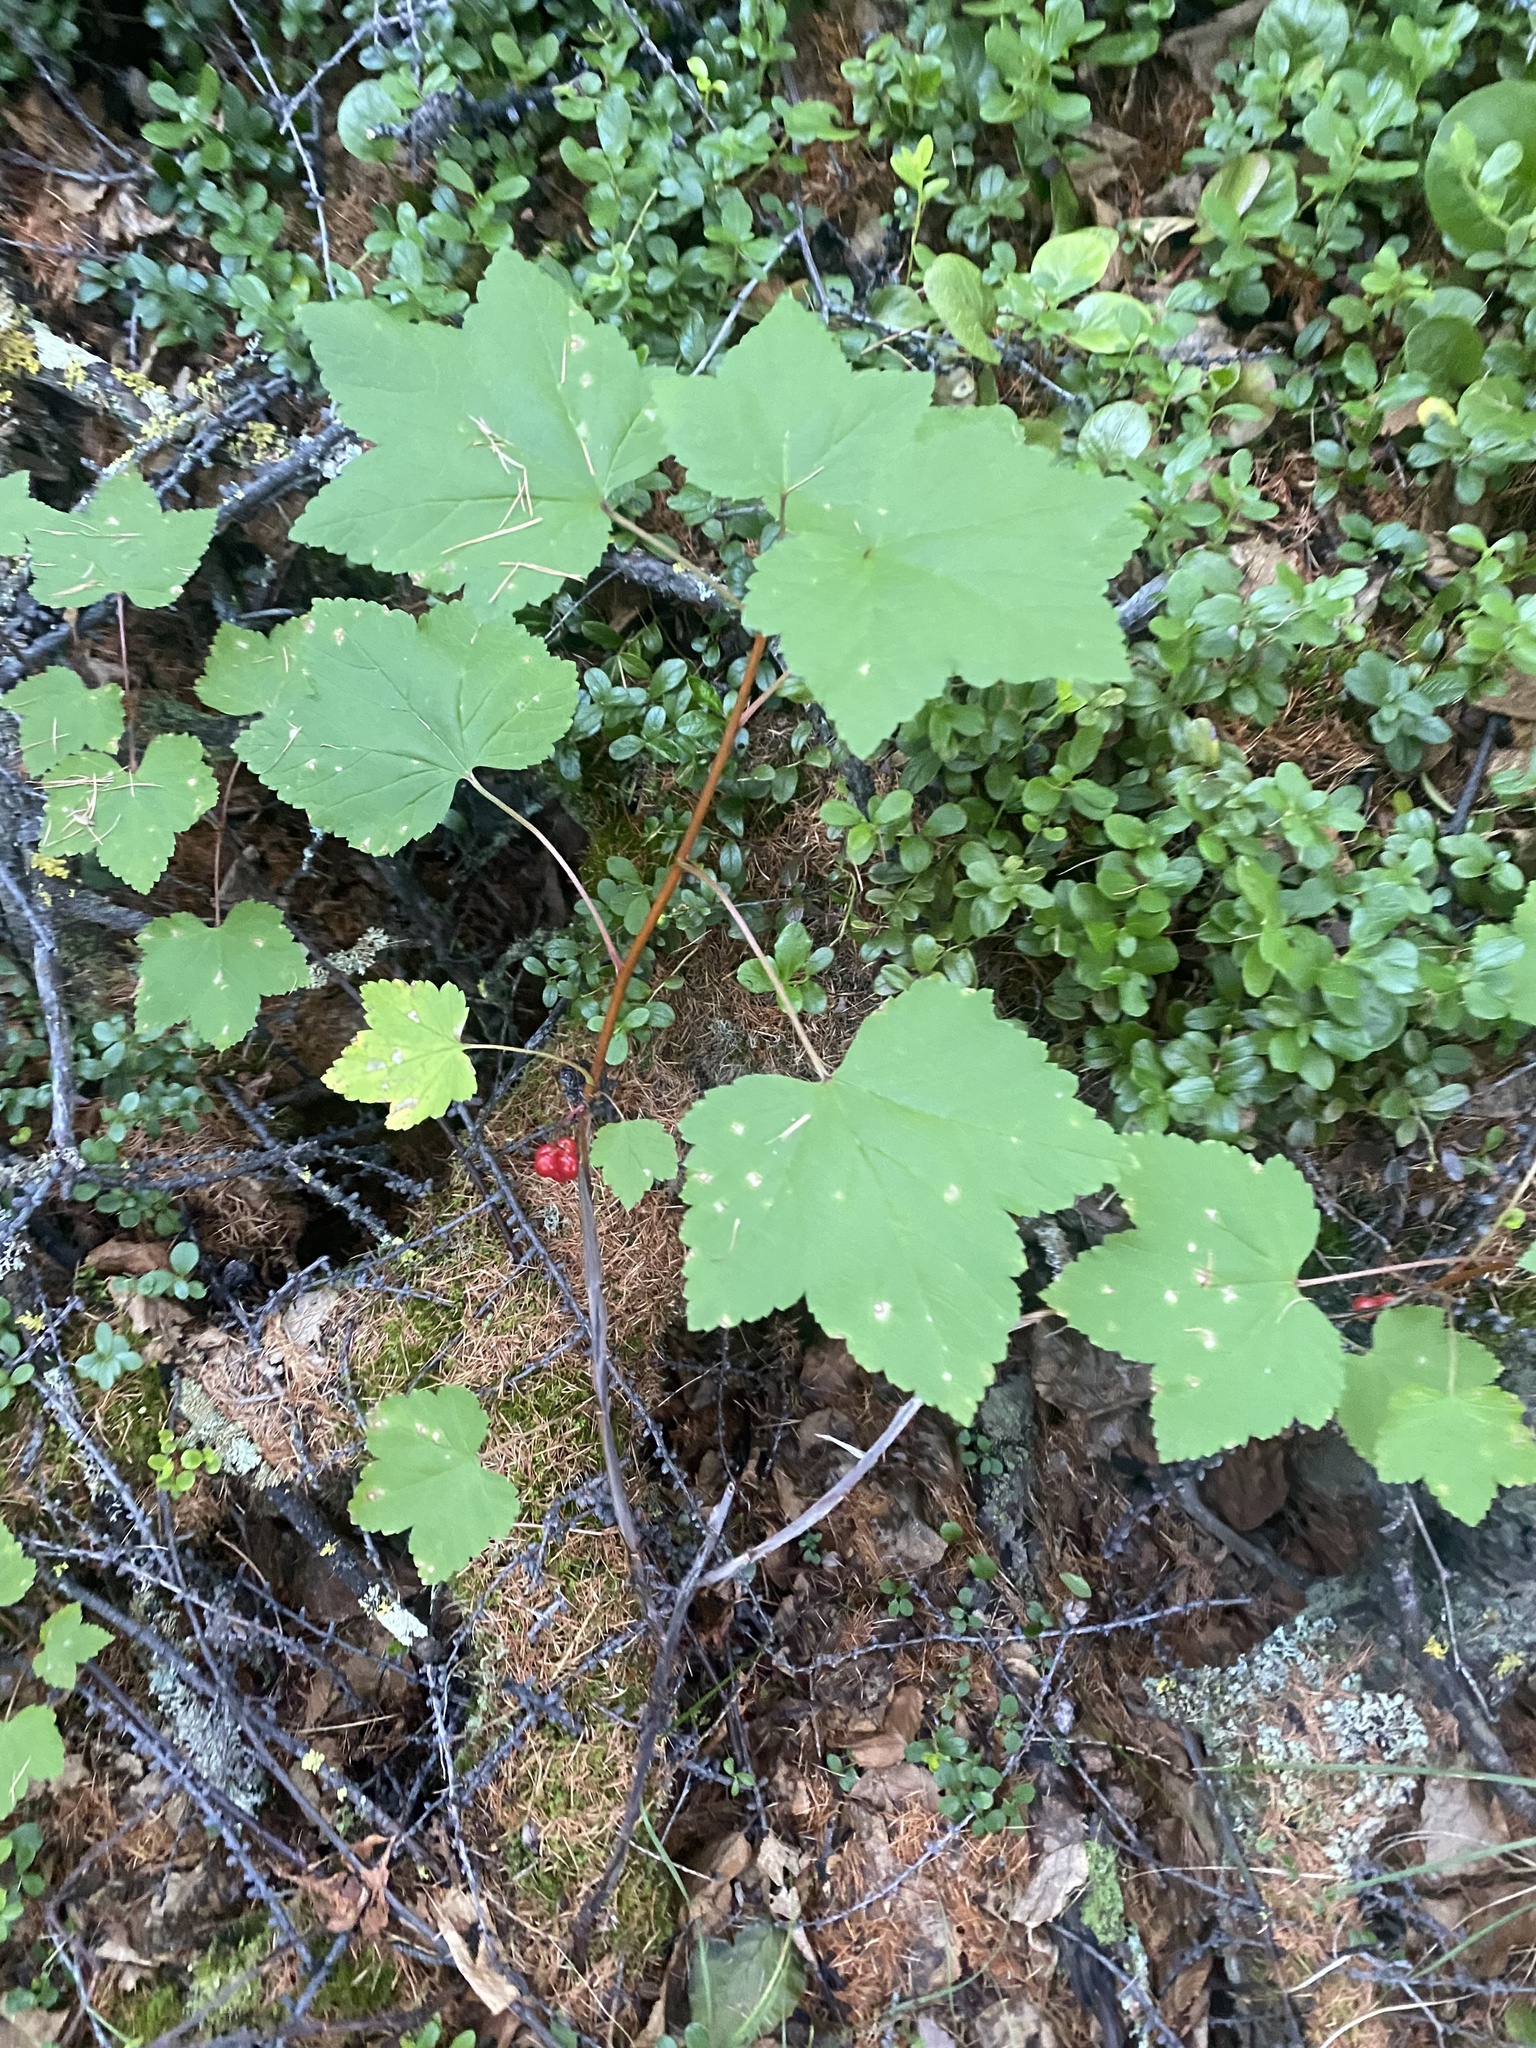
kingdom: Plantae
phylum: Tracheophyta
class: Magnoliopsida
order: Saxifragales
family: Grossulariaceae
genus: Ribes
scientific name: Ribes triste
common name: Swamp red currant
